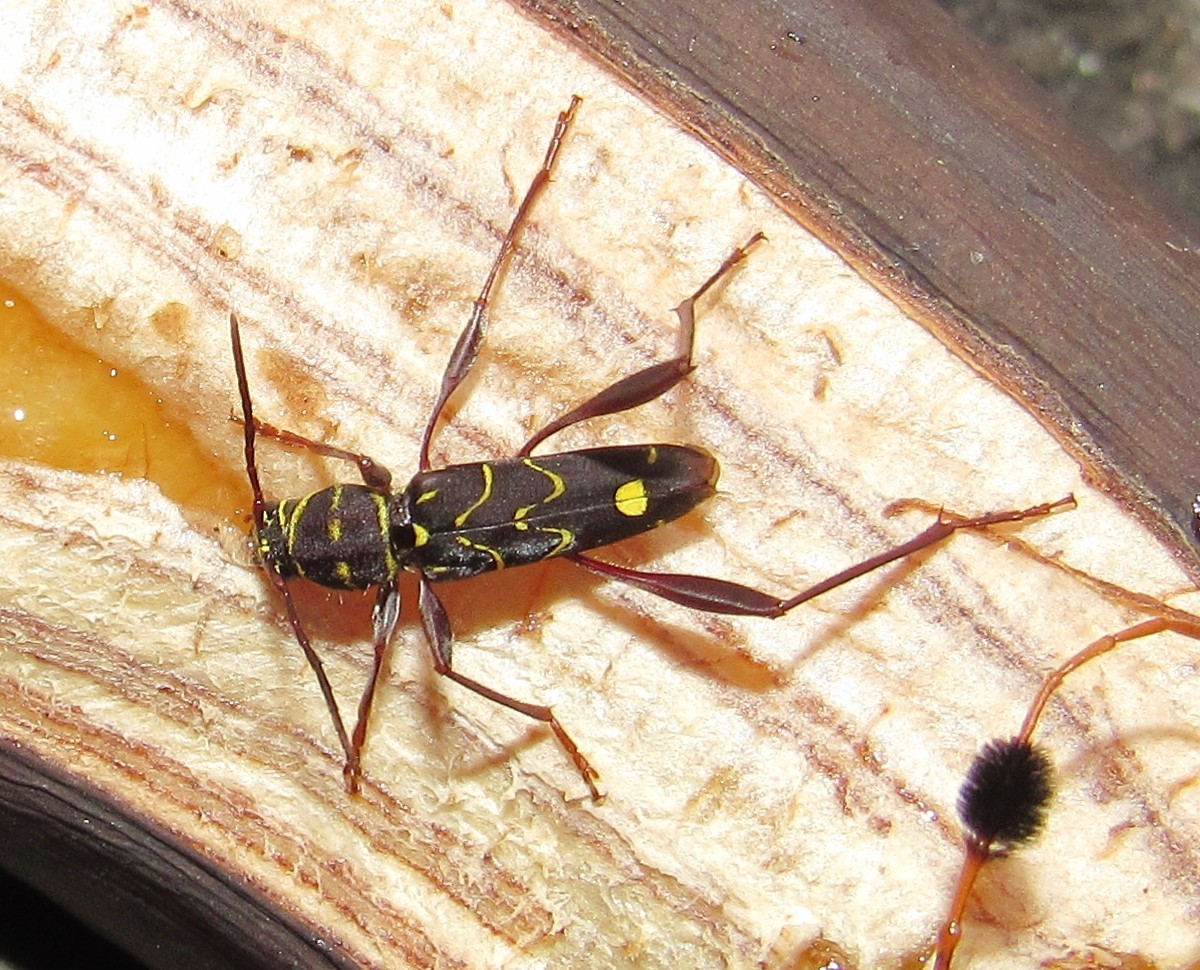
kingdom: Animalia
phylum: Arthropoda
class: Insecta
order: Coleoptera
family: Cerambycidae
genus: Cotyclytus
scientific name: Cotyclytus curvatus
